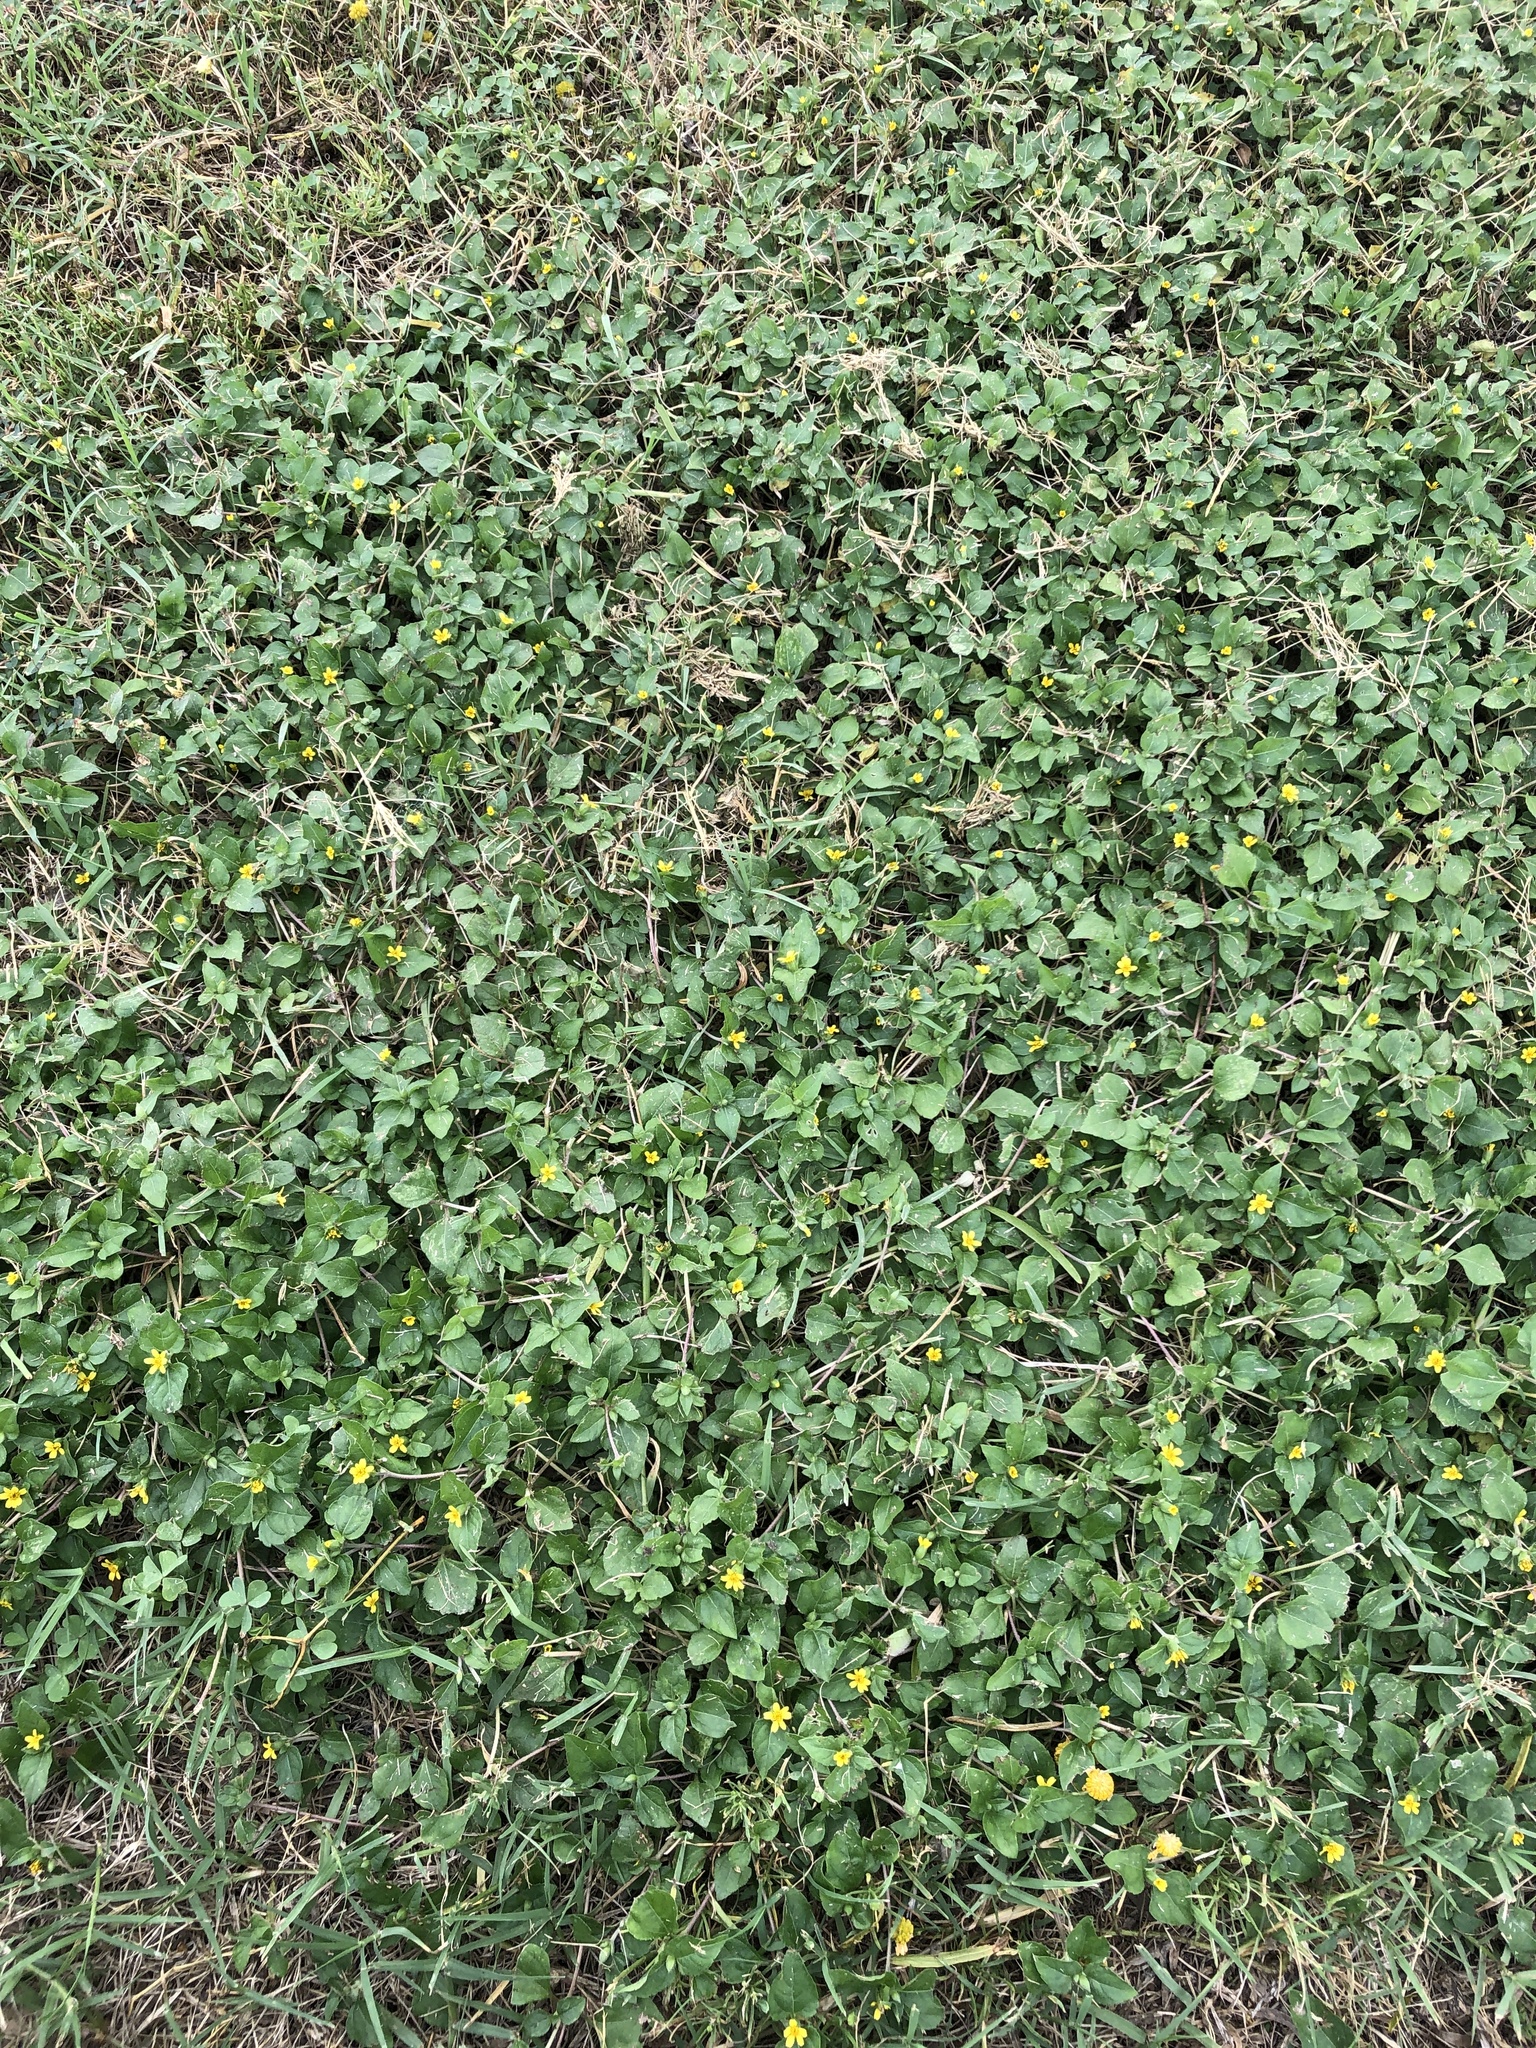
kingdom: Plantae
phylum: Tracheophyta
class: Magnoliopsida
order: Asterales
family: Asteraceae
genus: Calyptocarpus
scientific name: Calyptocarpus vialis
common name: Straggler daisy
